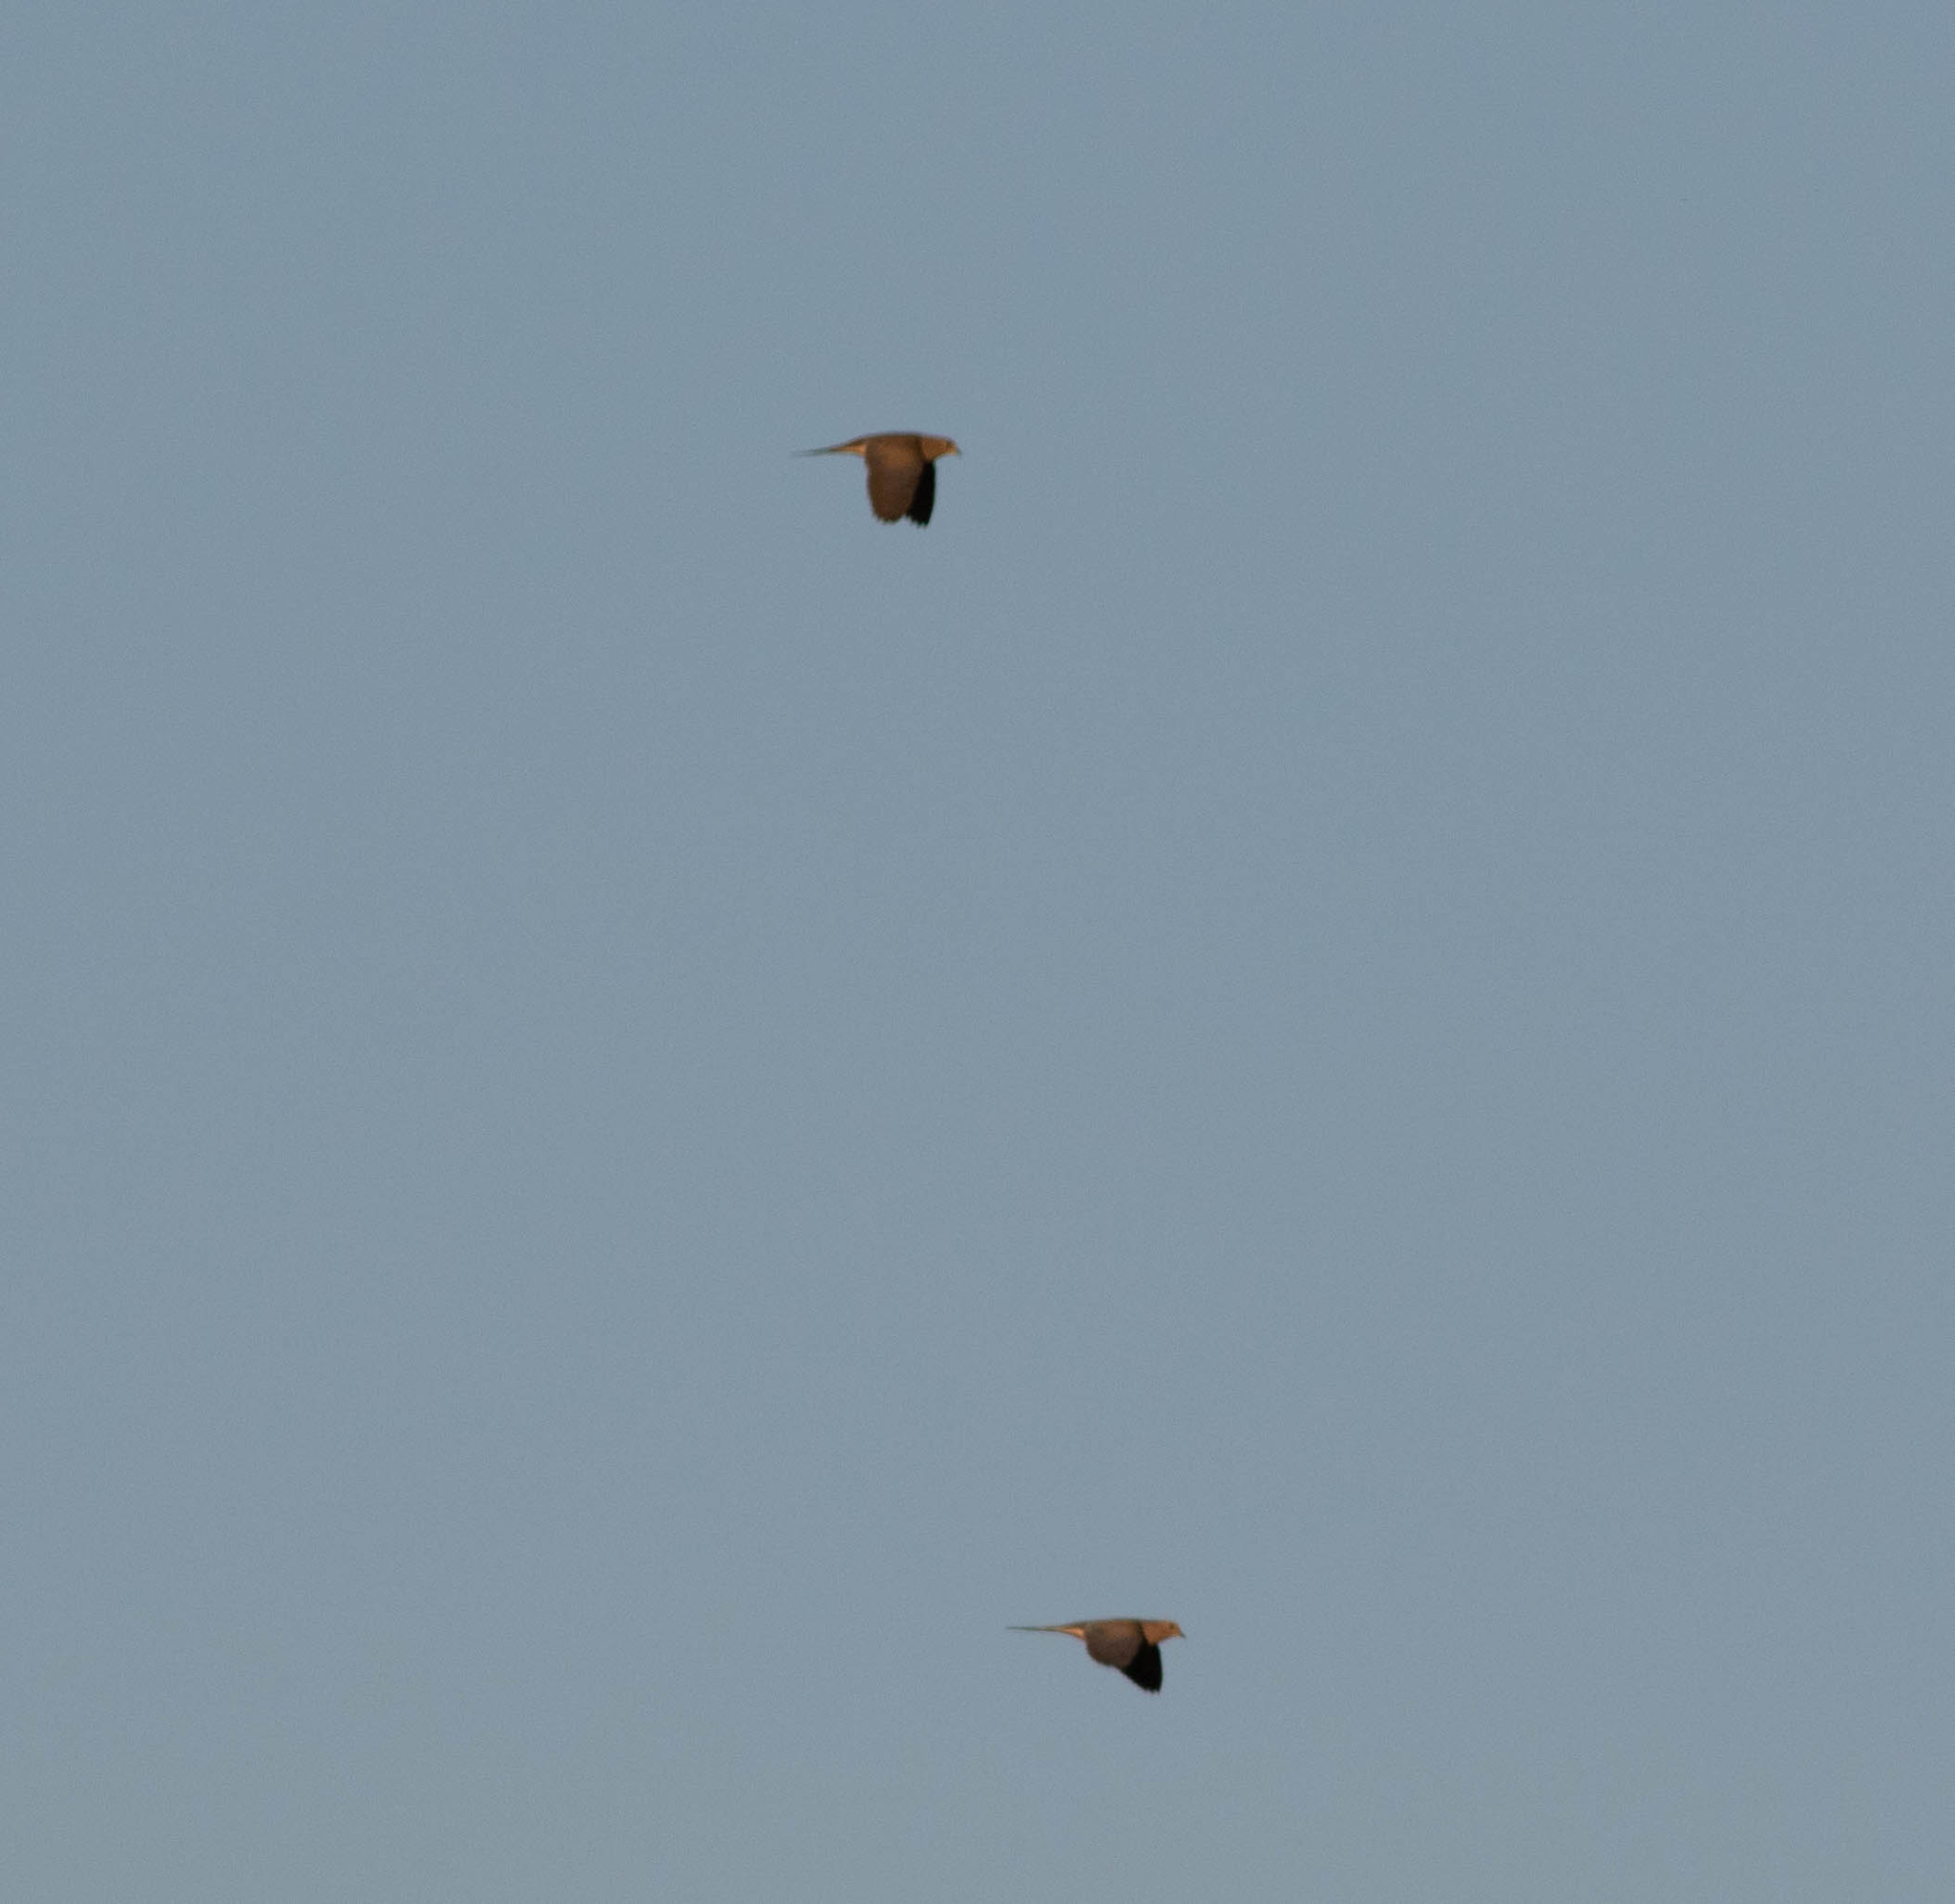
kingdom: Animalia
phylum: Chordata
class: Aves
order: Columbiformes
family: Columbidae
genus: Zenaida
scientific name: Zenaida macroura
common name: Mourning dove
